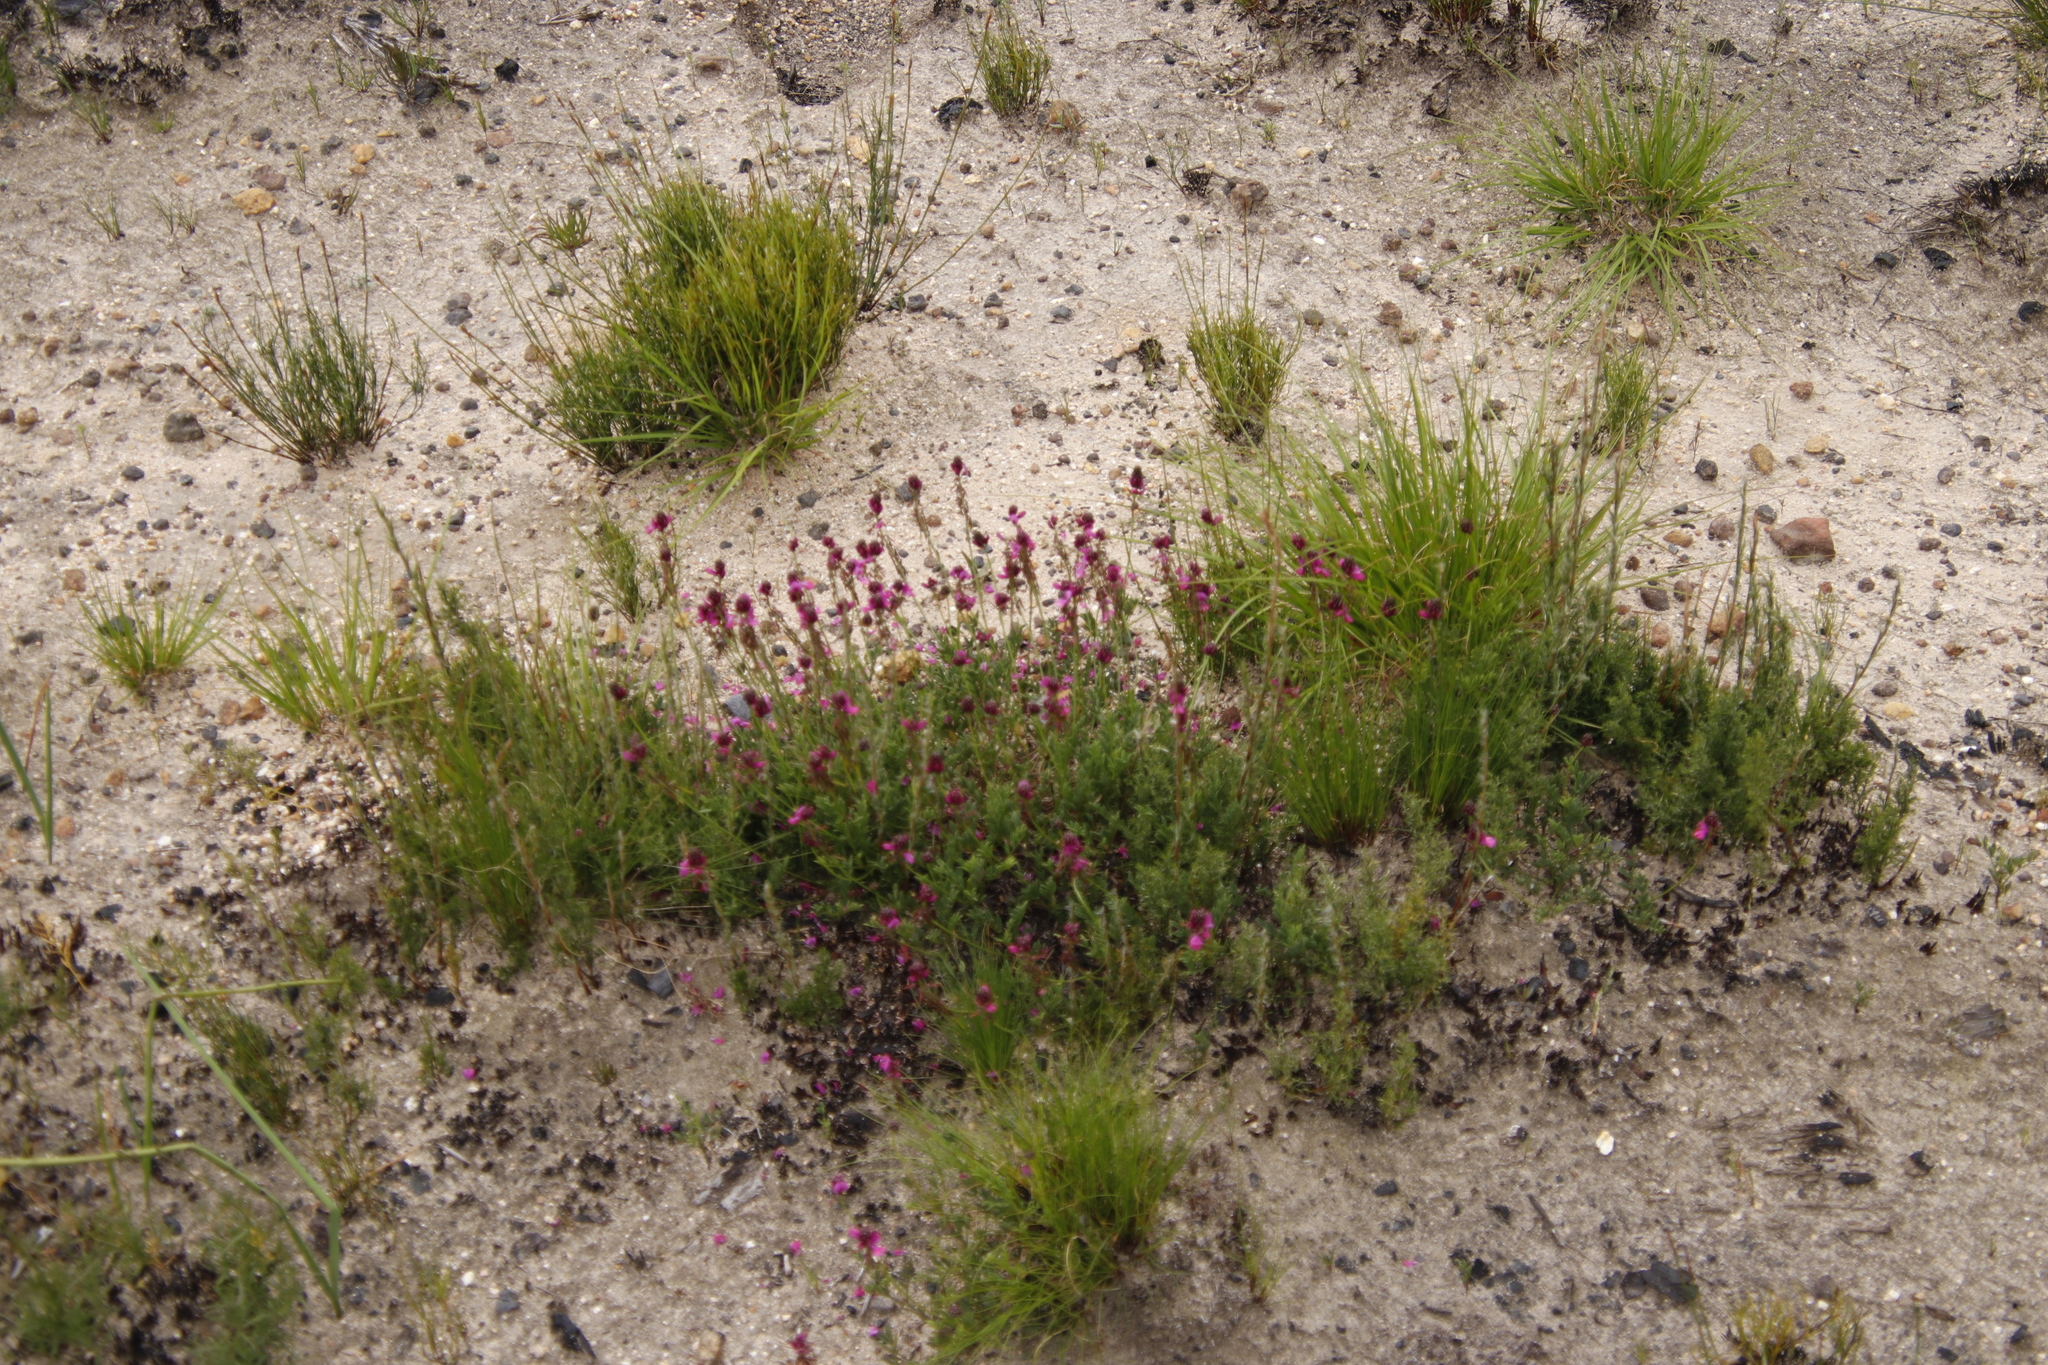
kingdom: Plantae
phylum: Tracheophyta
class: Magnoliopsida
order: Fabales
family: Fabaceae
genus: Indigofera
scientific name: Indigofera capillaris
